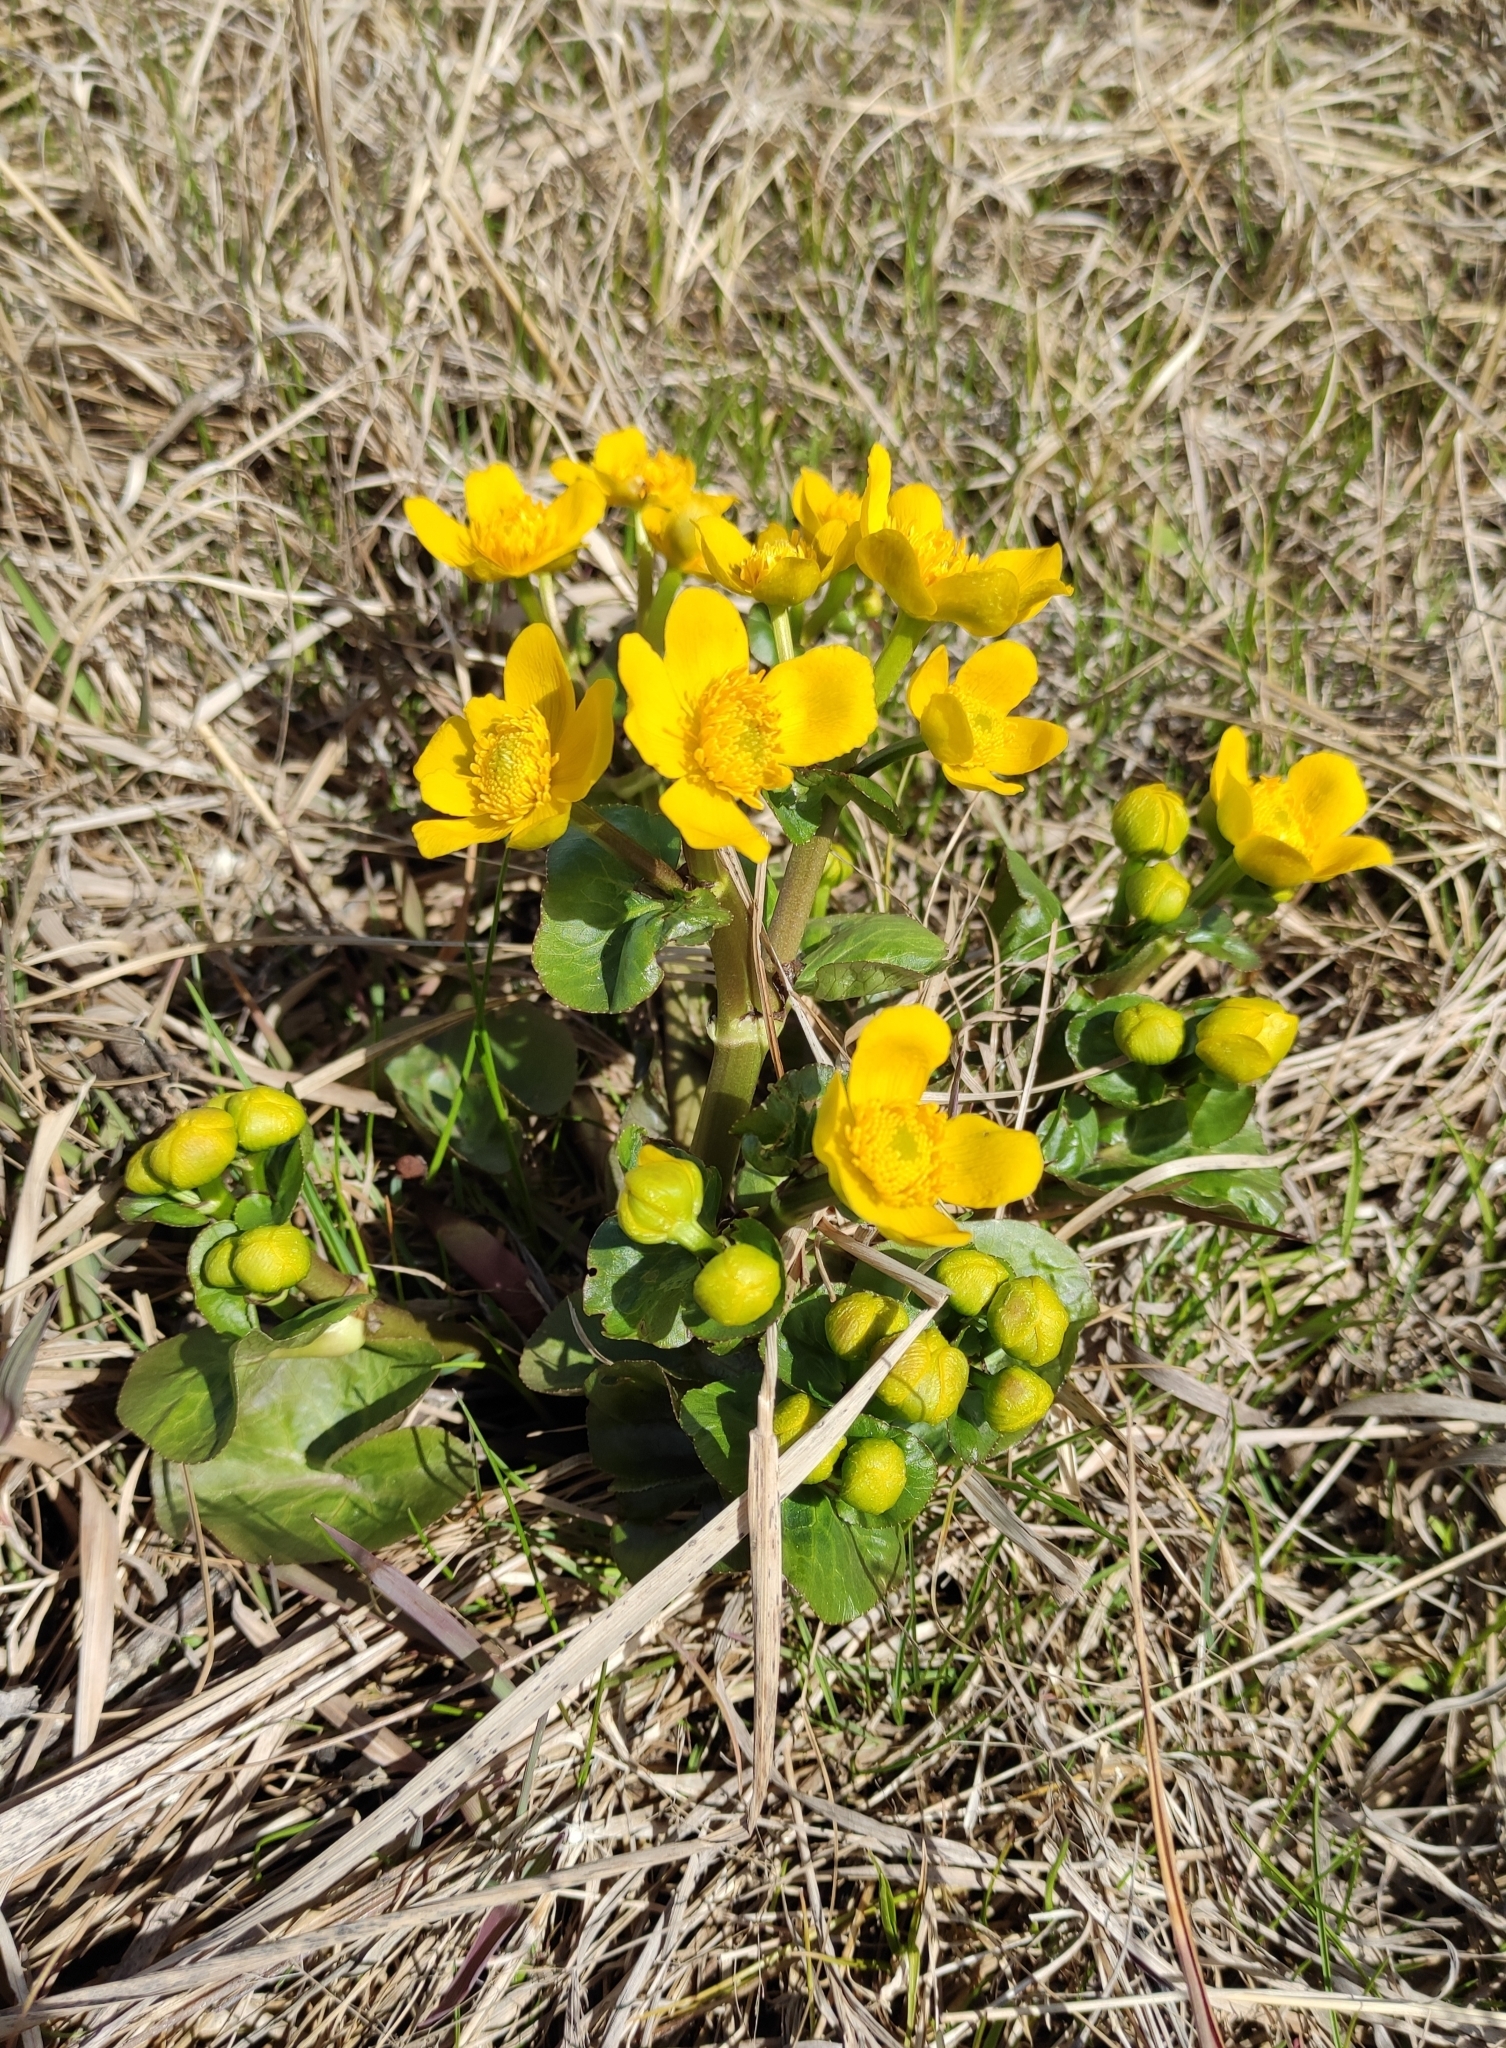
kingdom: Plantae
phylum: Tracheophyta
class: Magnoliopsida
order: Ranunculales
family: Ranunculaceae
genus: Caltha
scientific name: Caltha palustris
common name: Marsh marigold
